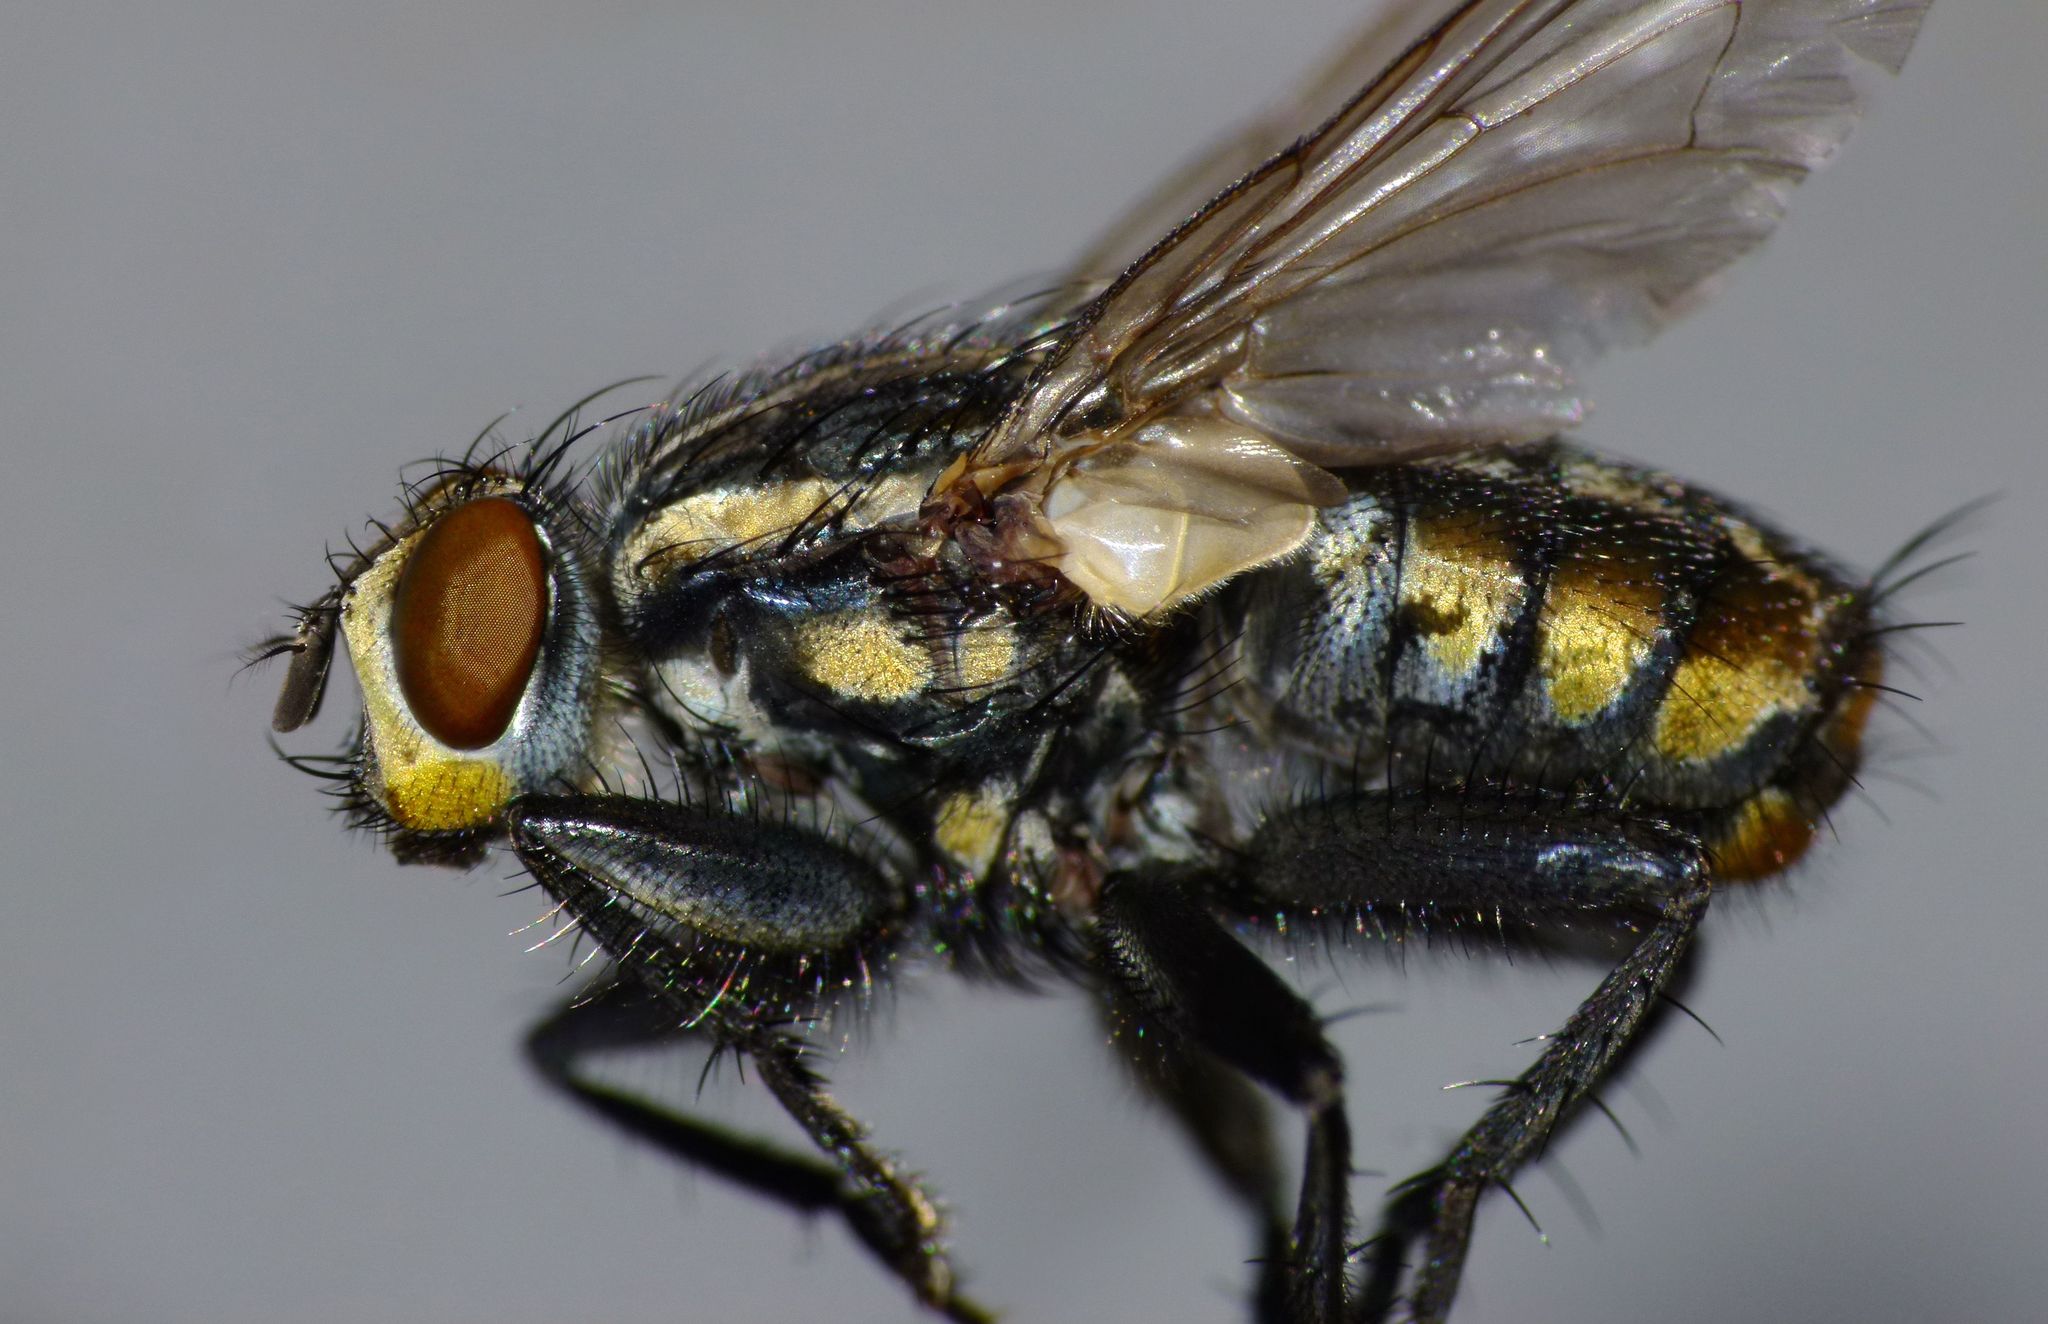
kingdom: Animalia
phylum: Arthropoda
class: Insecta
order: Diptera
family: Sarcophagidae
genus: Oxysarcodexia
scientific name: Oxysarcodexia varia
